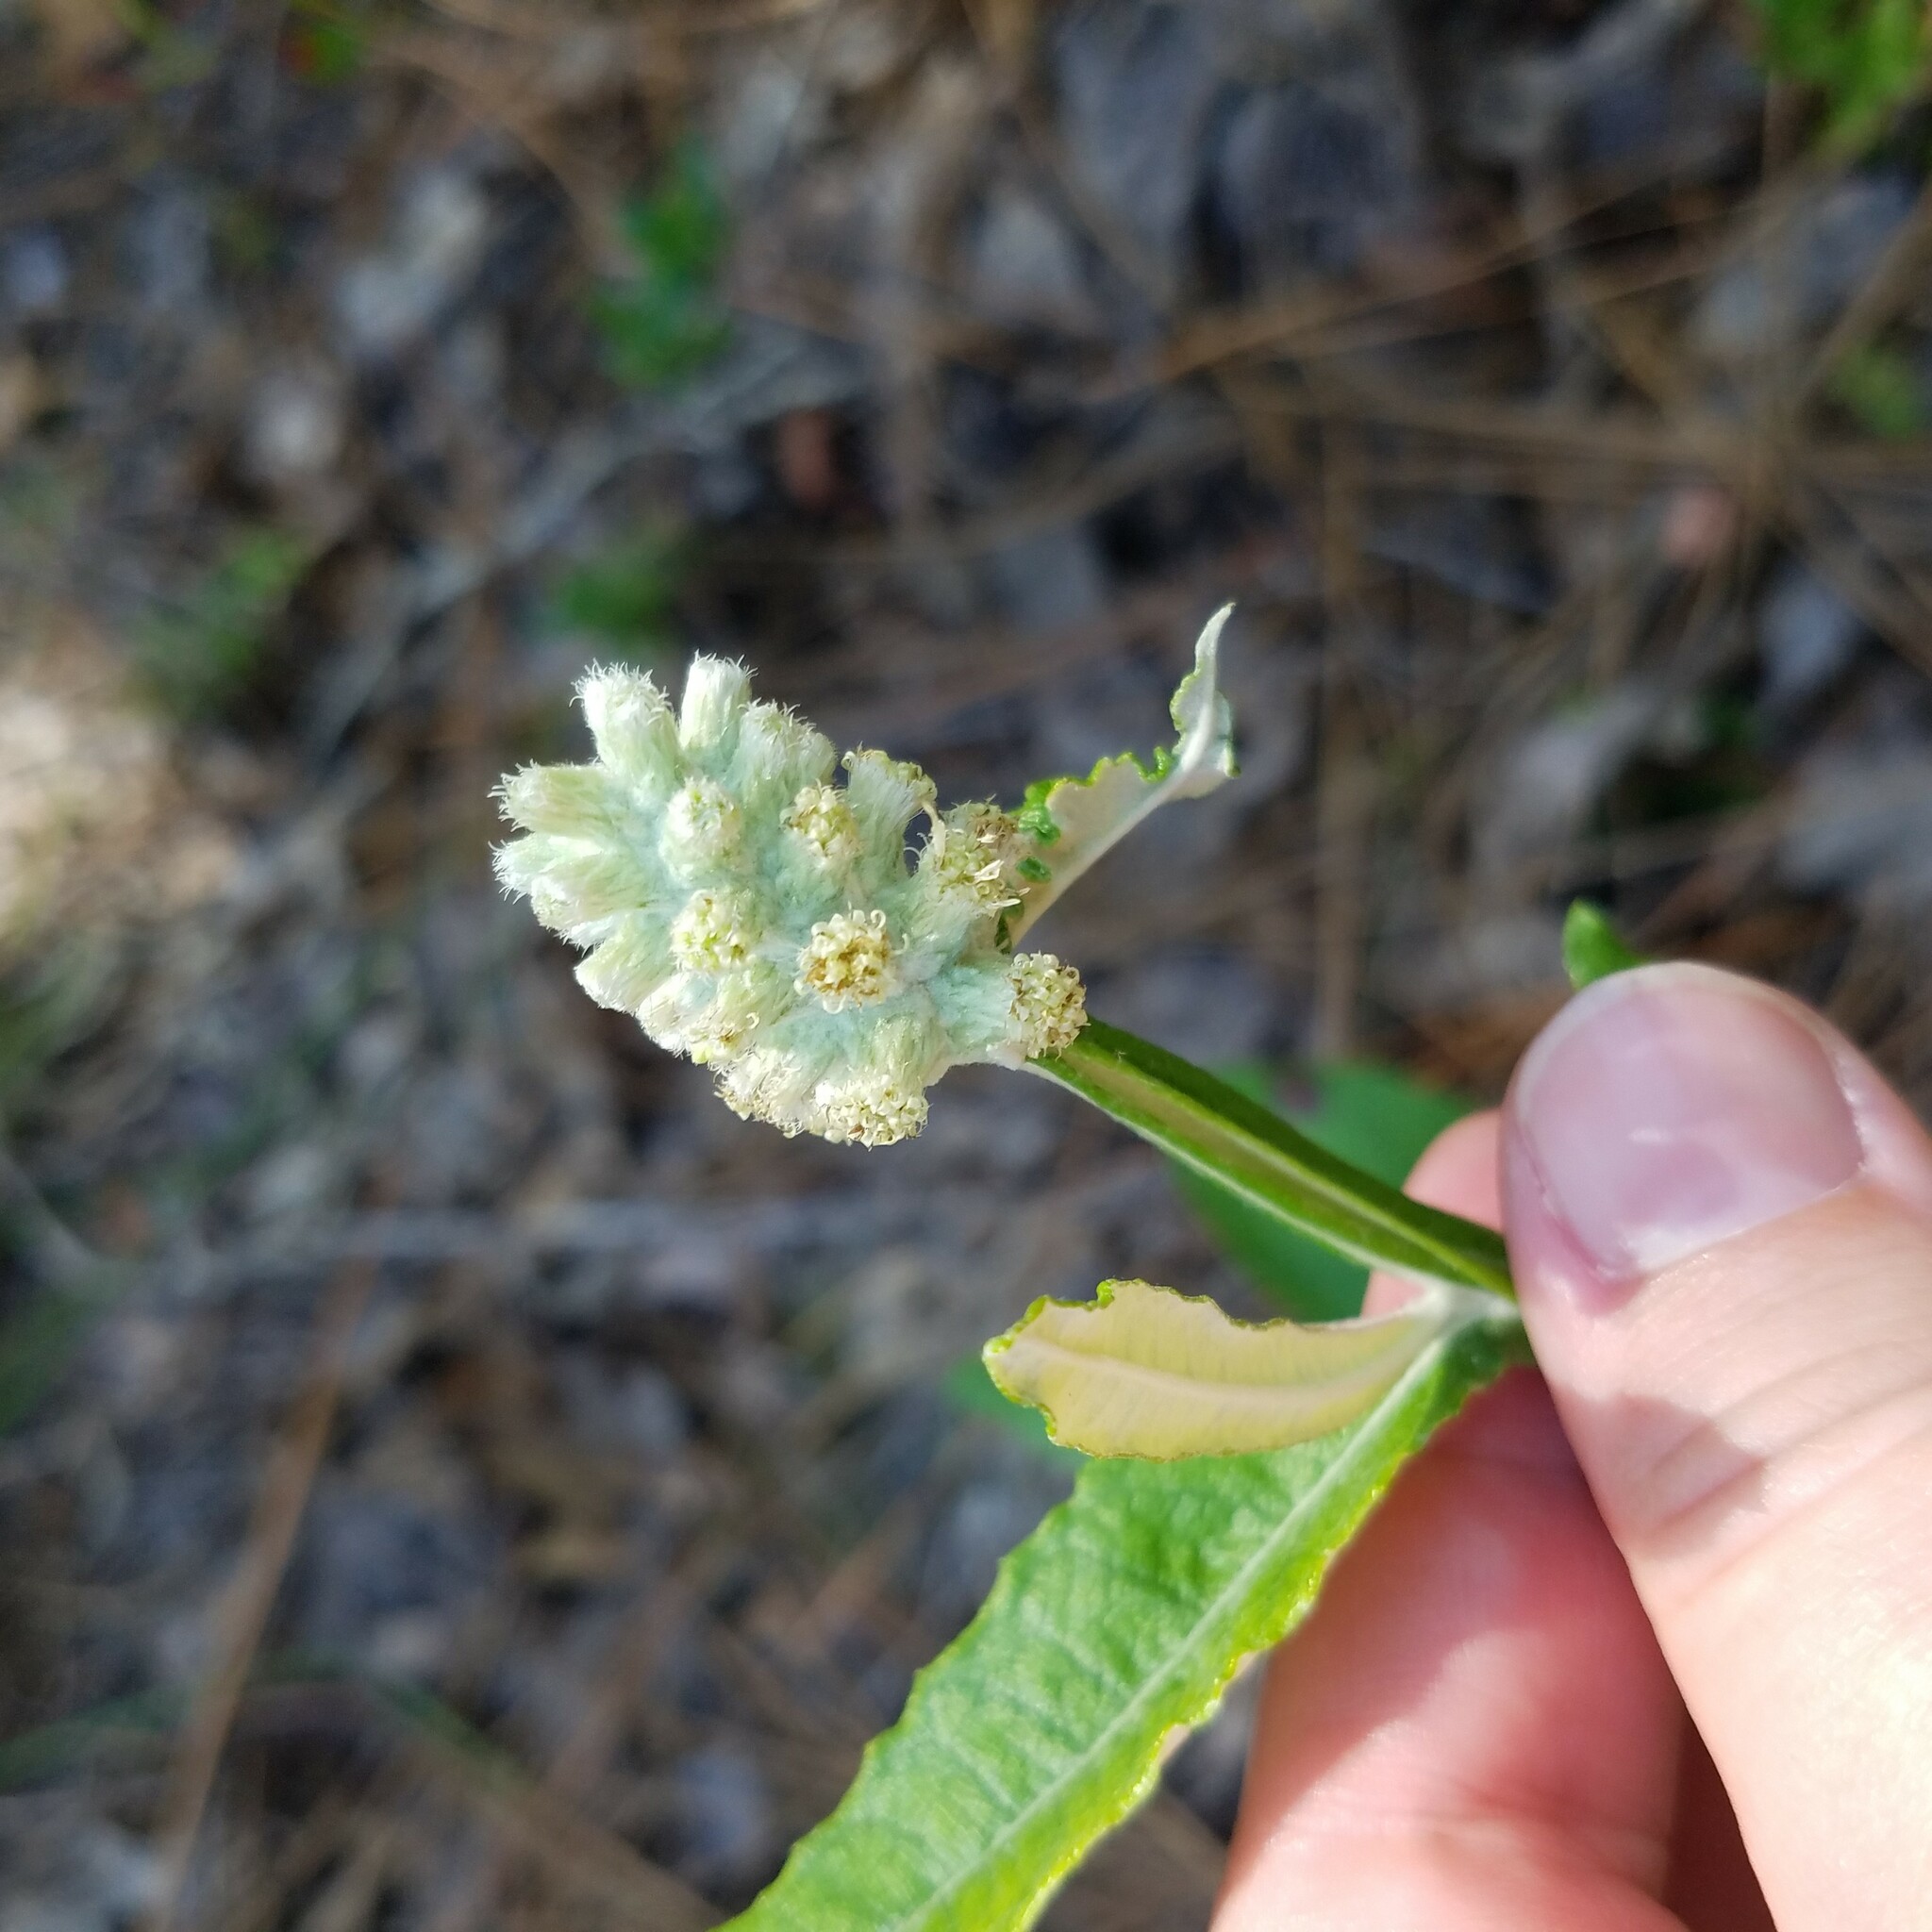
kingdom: Plantae
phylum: Tracheophyta
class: Magnoliopsida
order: Asterales
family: Asteraceae
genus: Pterocaulon
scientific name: Pterocaulon pycnostachyum
